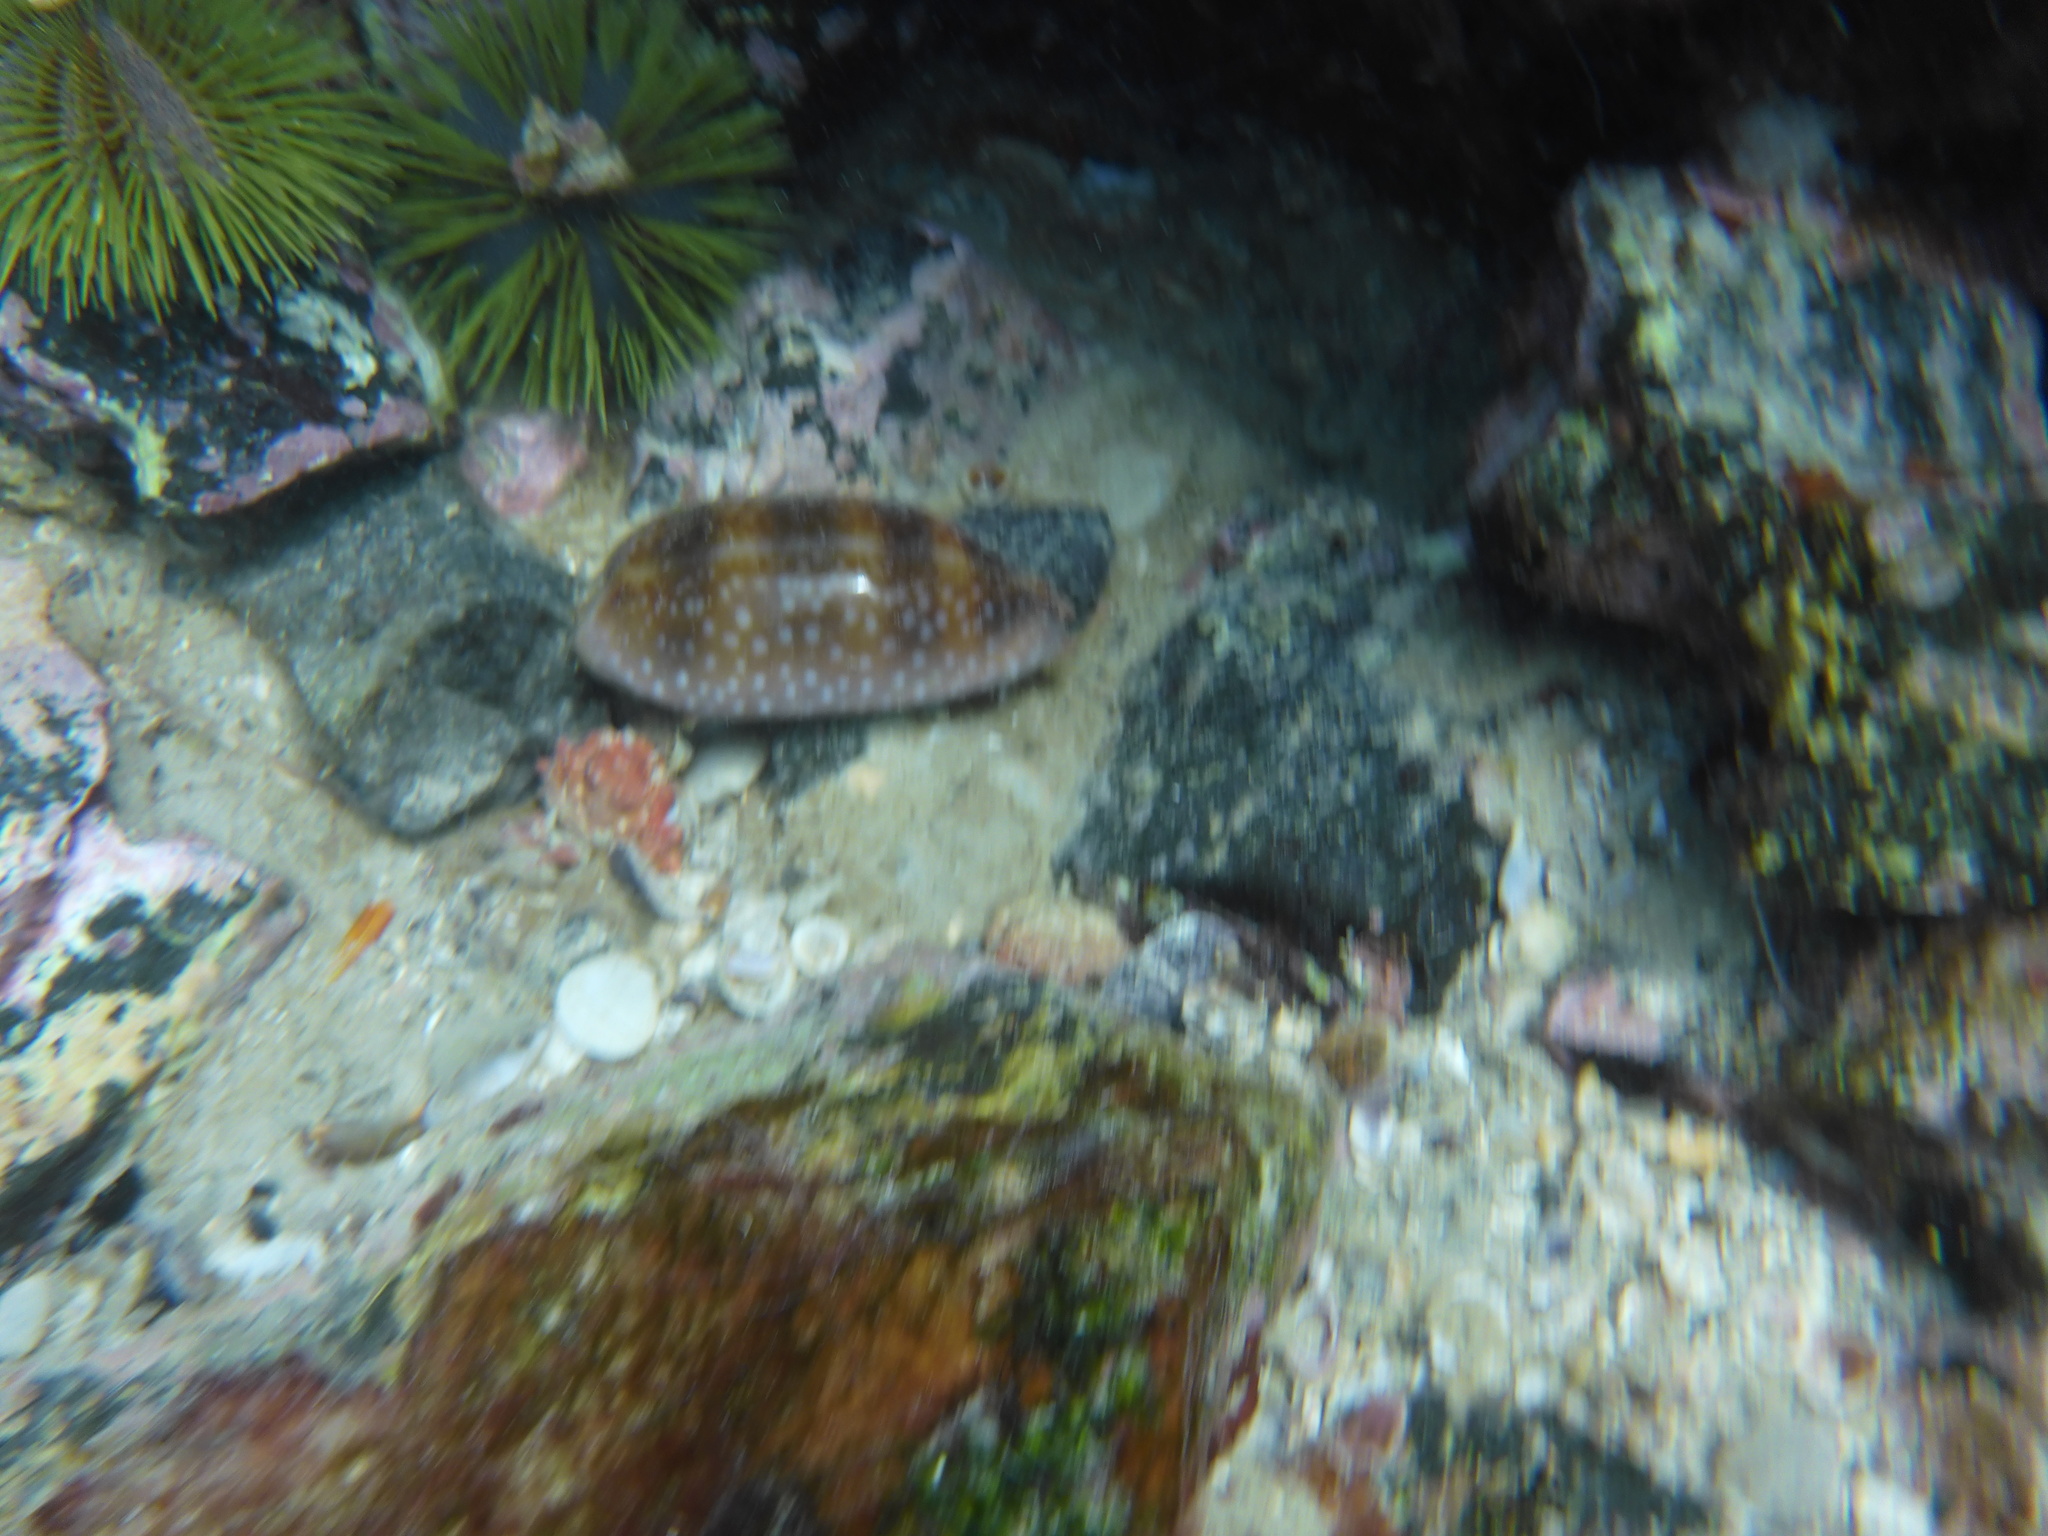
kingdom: Animalia
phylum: Mollusca
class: Gastropoda
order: Littorinimorpha
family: Cypraeidae
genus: Macrocypraea
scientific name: Macrocypraea cervinetta
